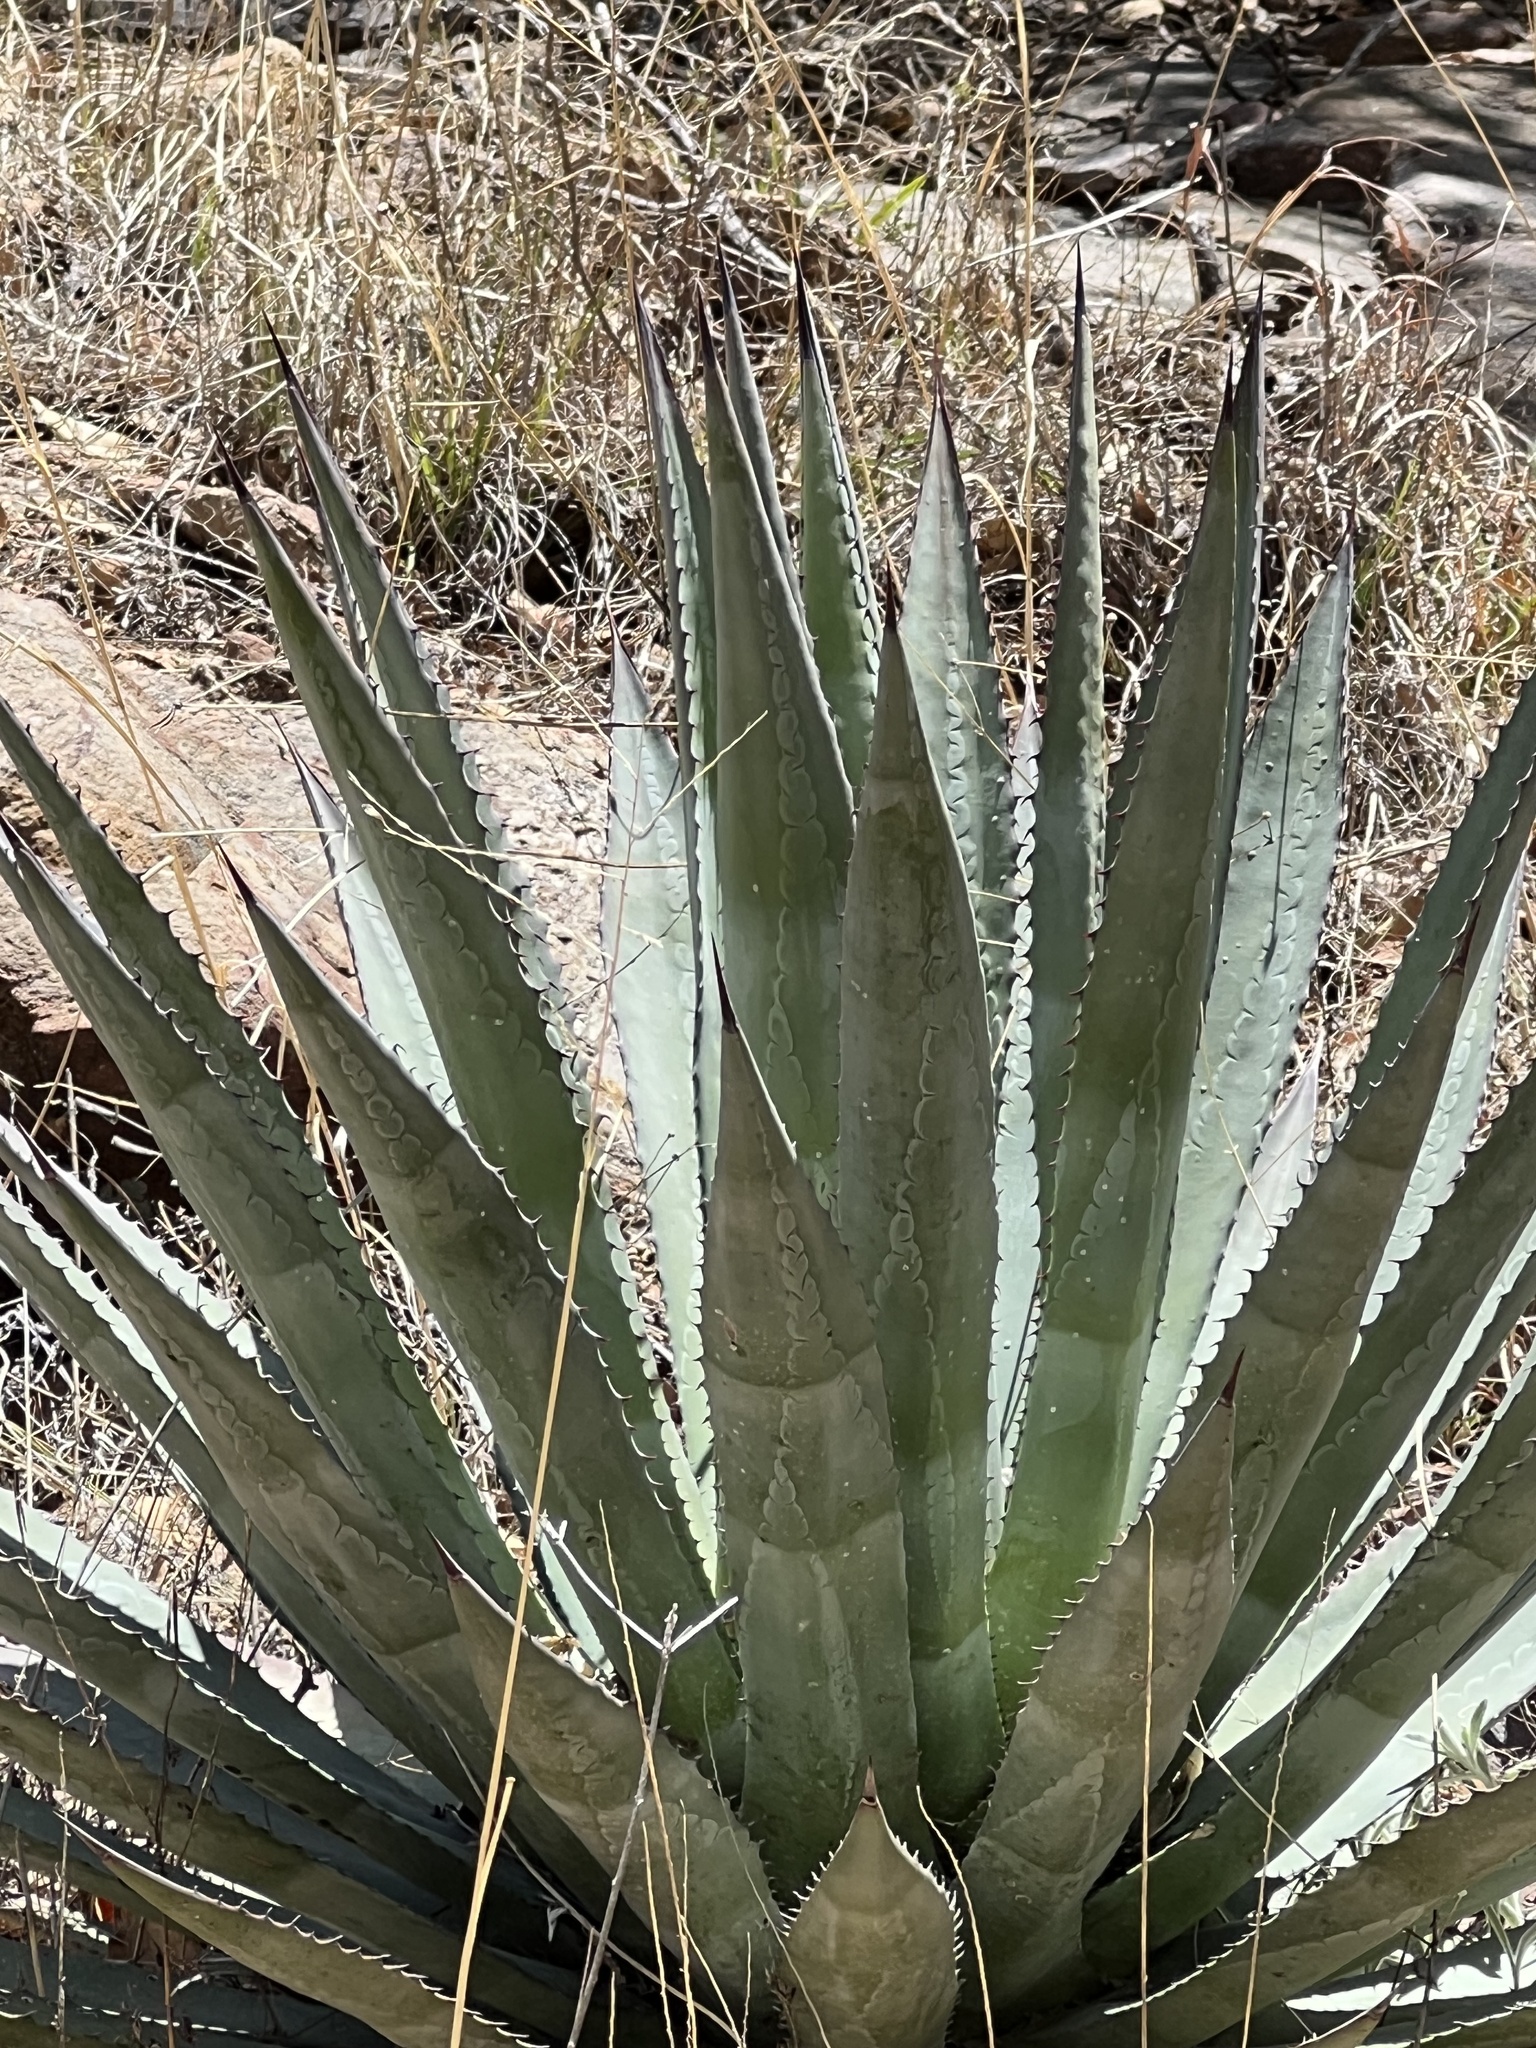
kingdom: Plantae
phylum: Tracheophyta
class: Liliopsida
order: Asparagales
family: Asparagaceae
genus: Agave
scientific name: Agave palmeri
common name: Palmer agave
